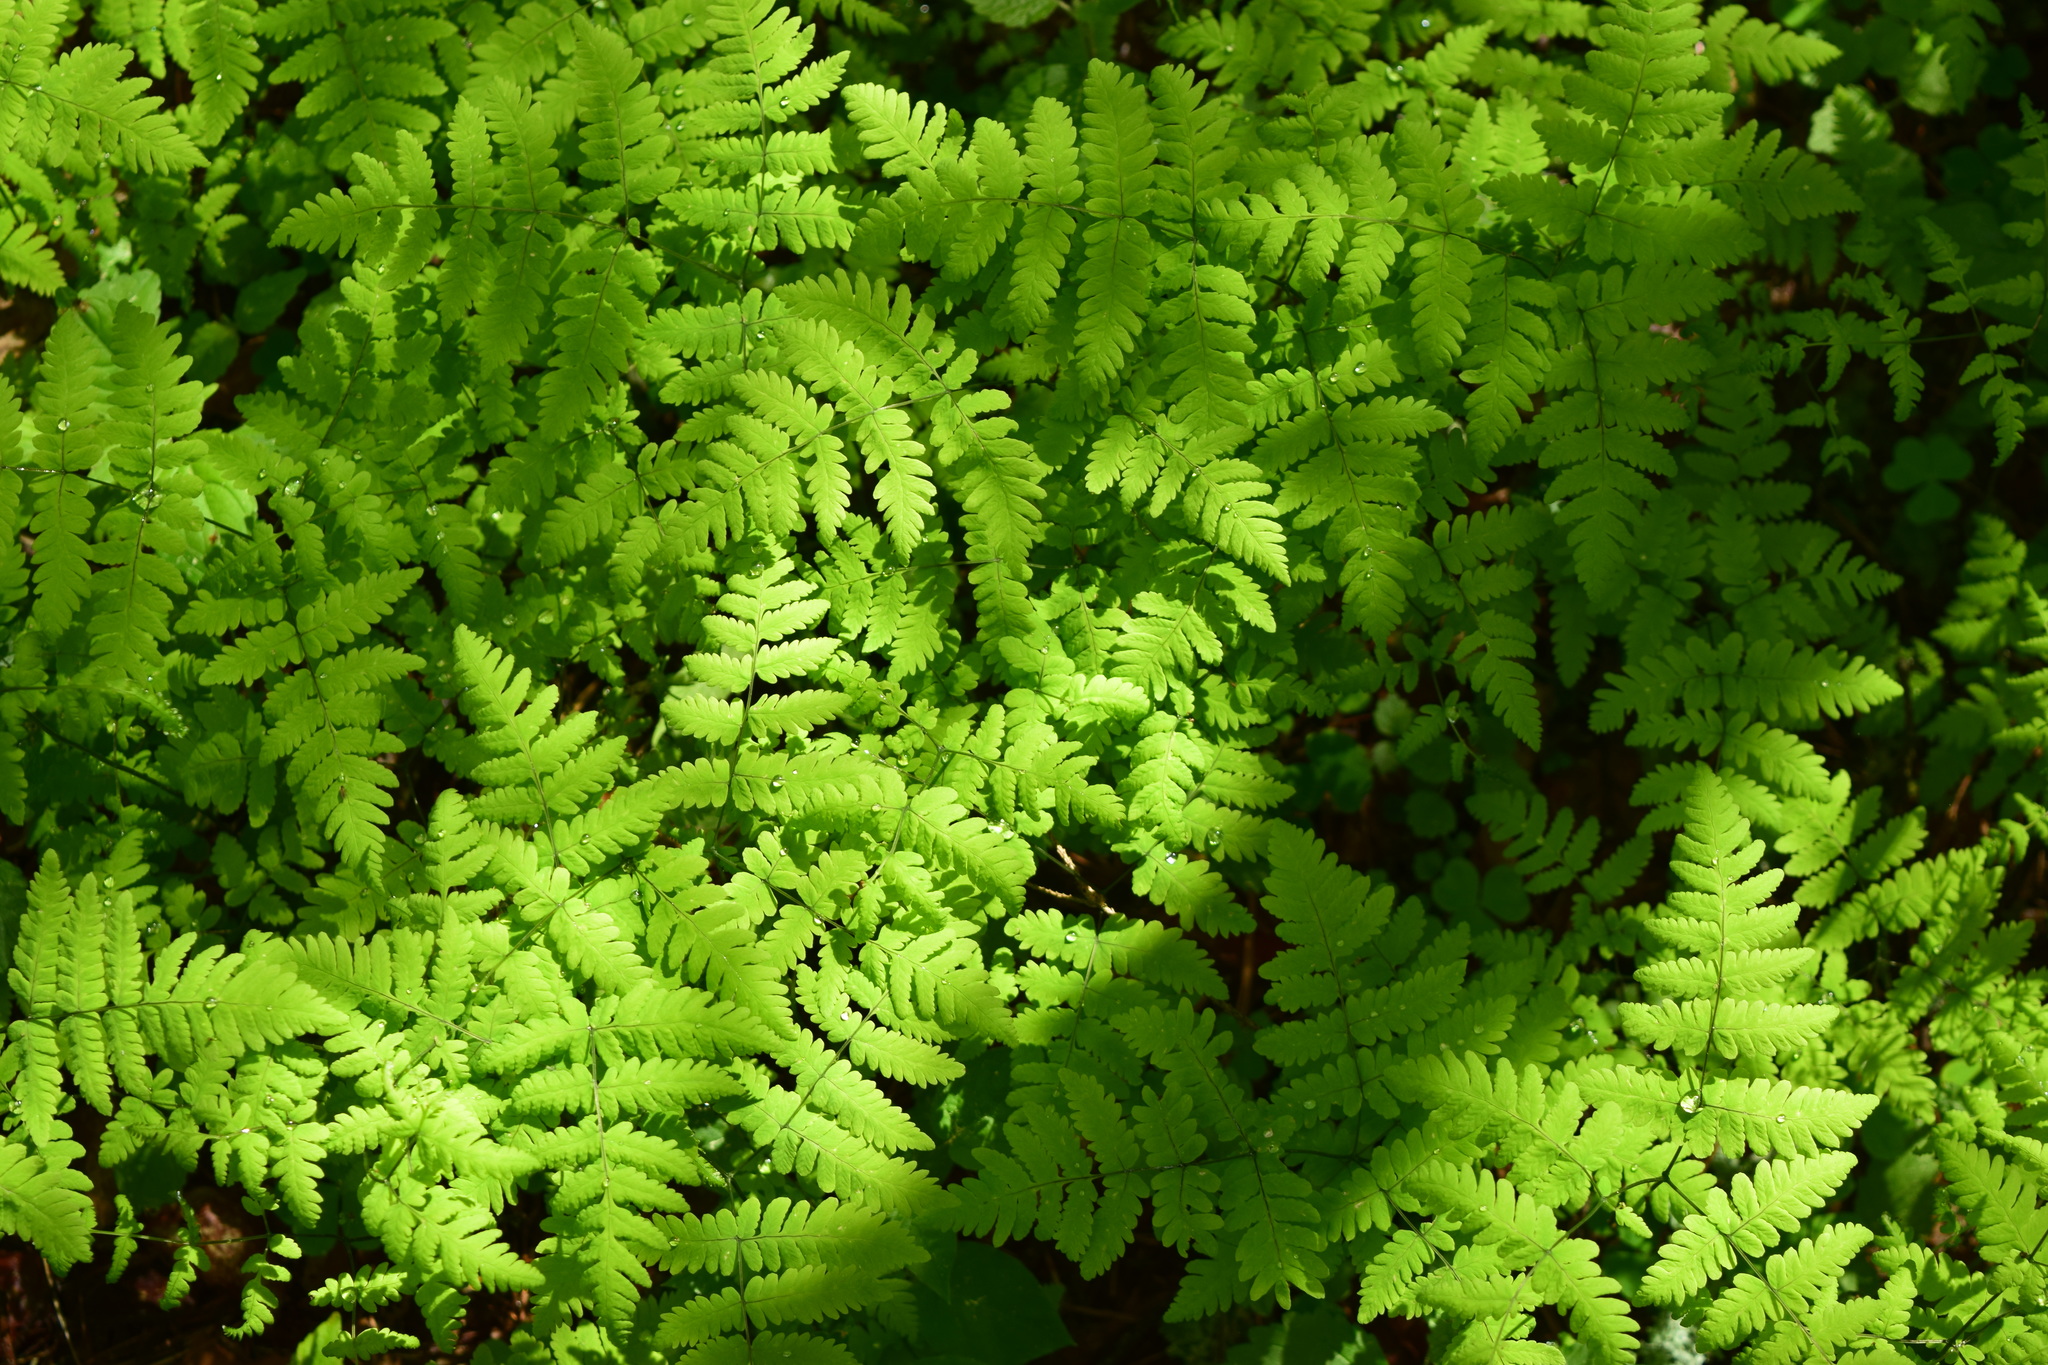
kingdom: Plantae
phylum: Tracheophyta
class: Polypodiopsida
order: Polypodiales
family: Cystopteridaceae
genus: Gymnocarpium
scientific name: Gymnocarpium dryopteris
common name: Oak fern
